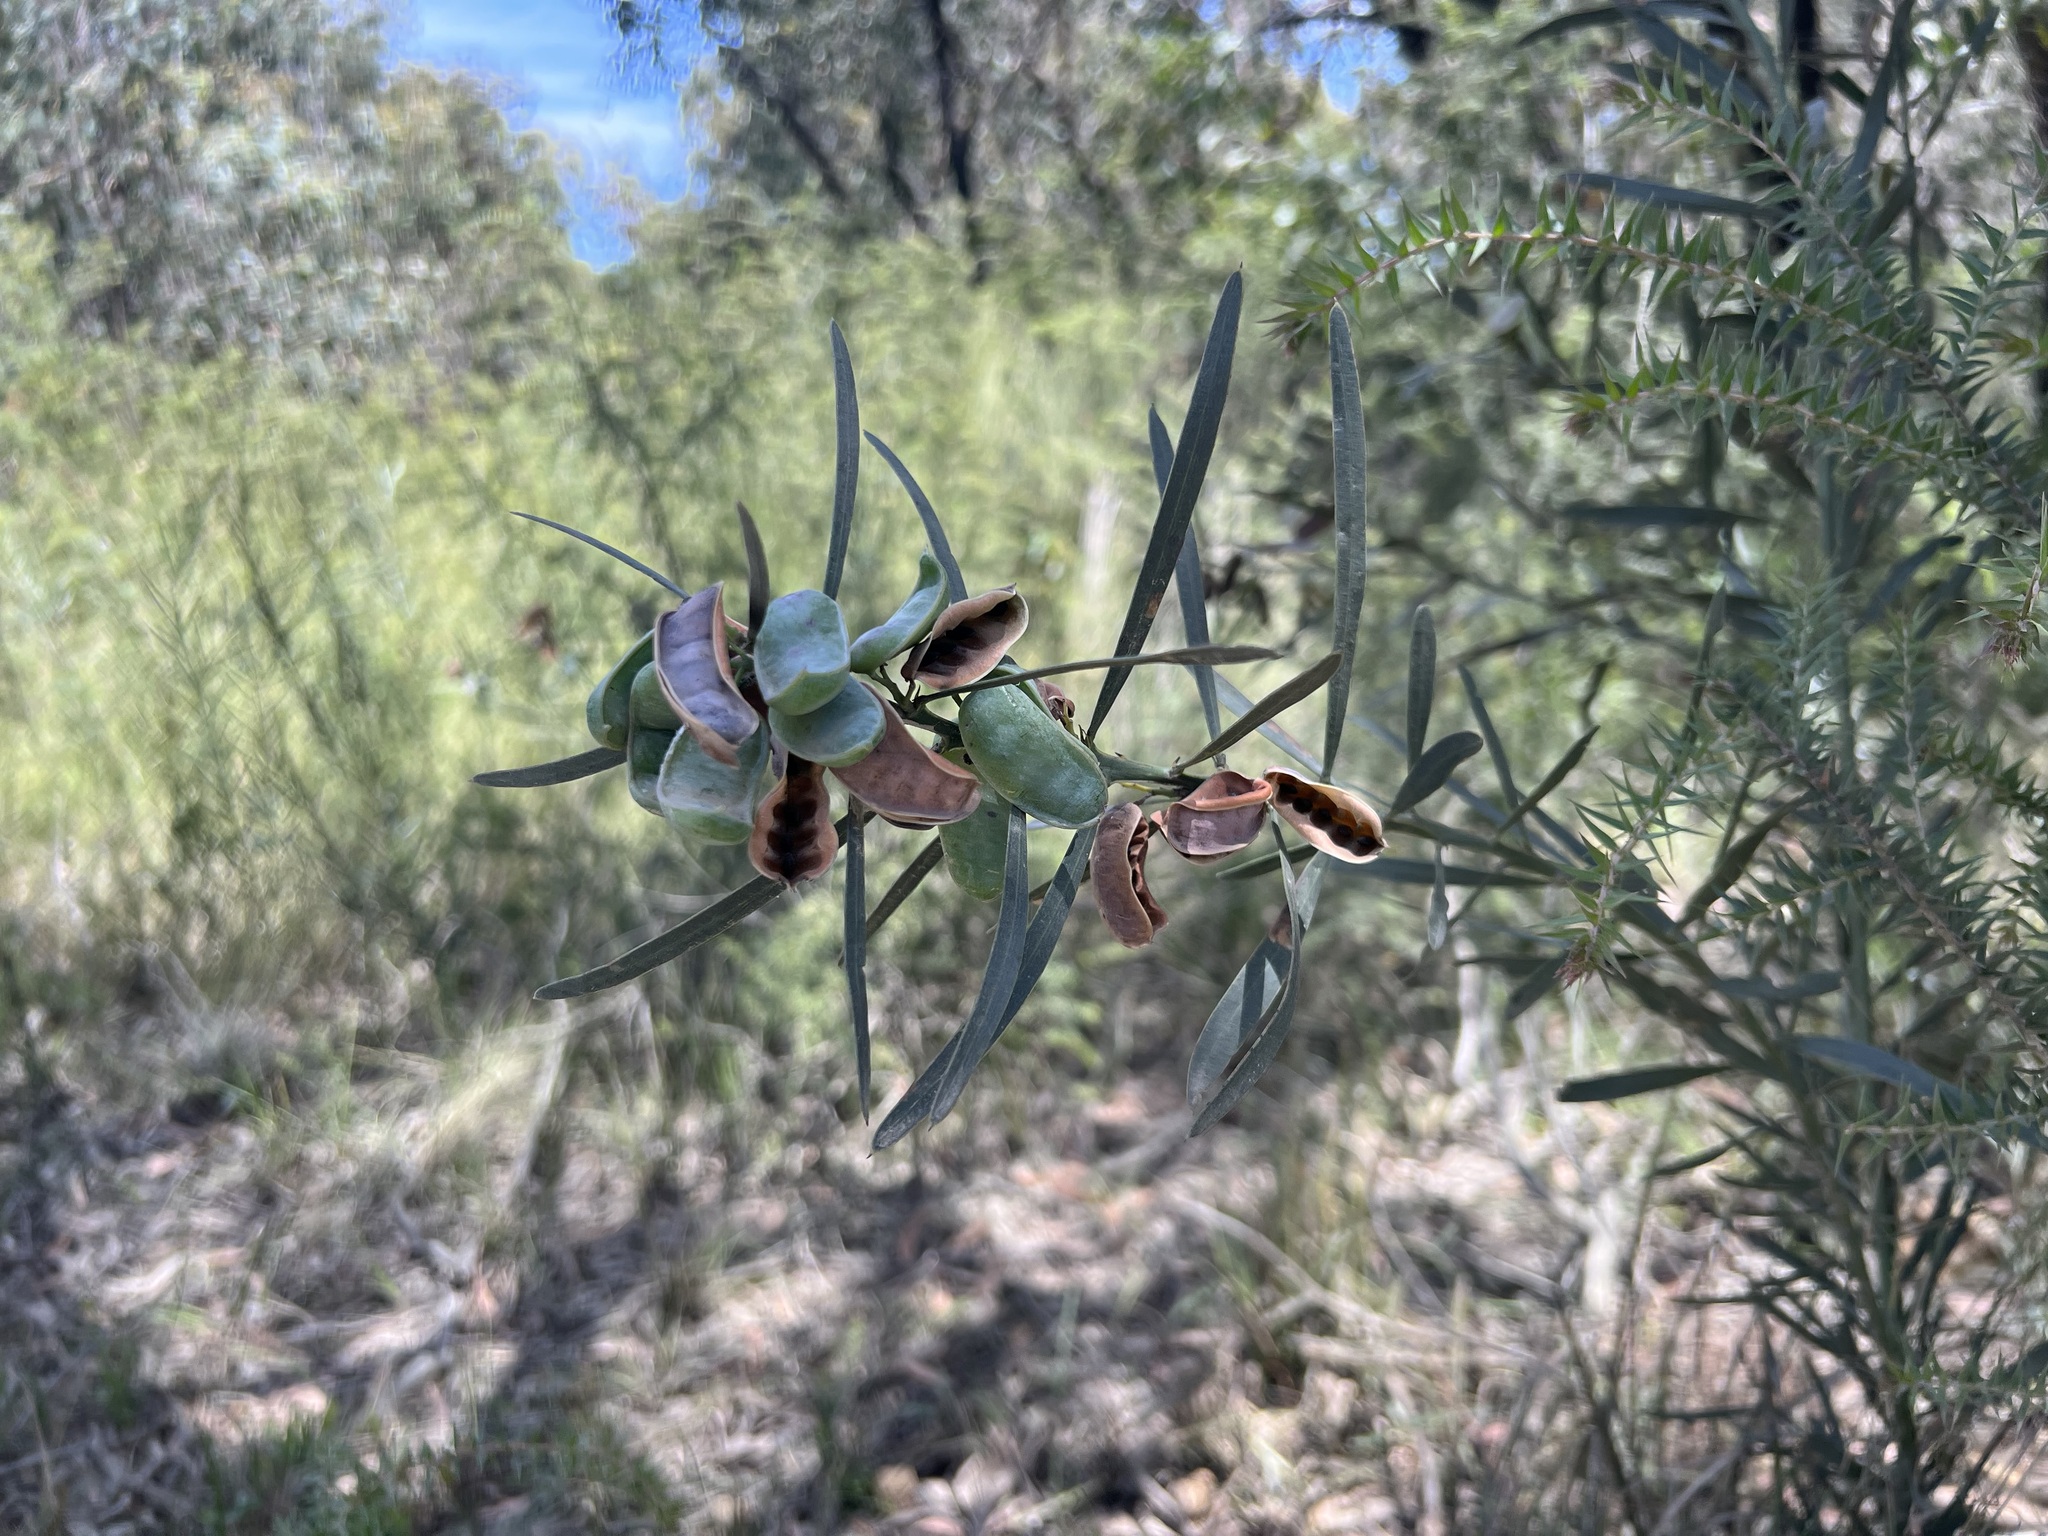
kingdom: Plantae
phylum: Tracheophyta
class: Magnoliopsida
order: Fabales
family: Fabaceae
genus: Acacia
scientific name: Acacia suaveolens
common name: Sweet acacia
